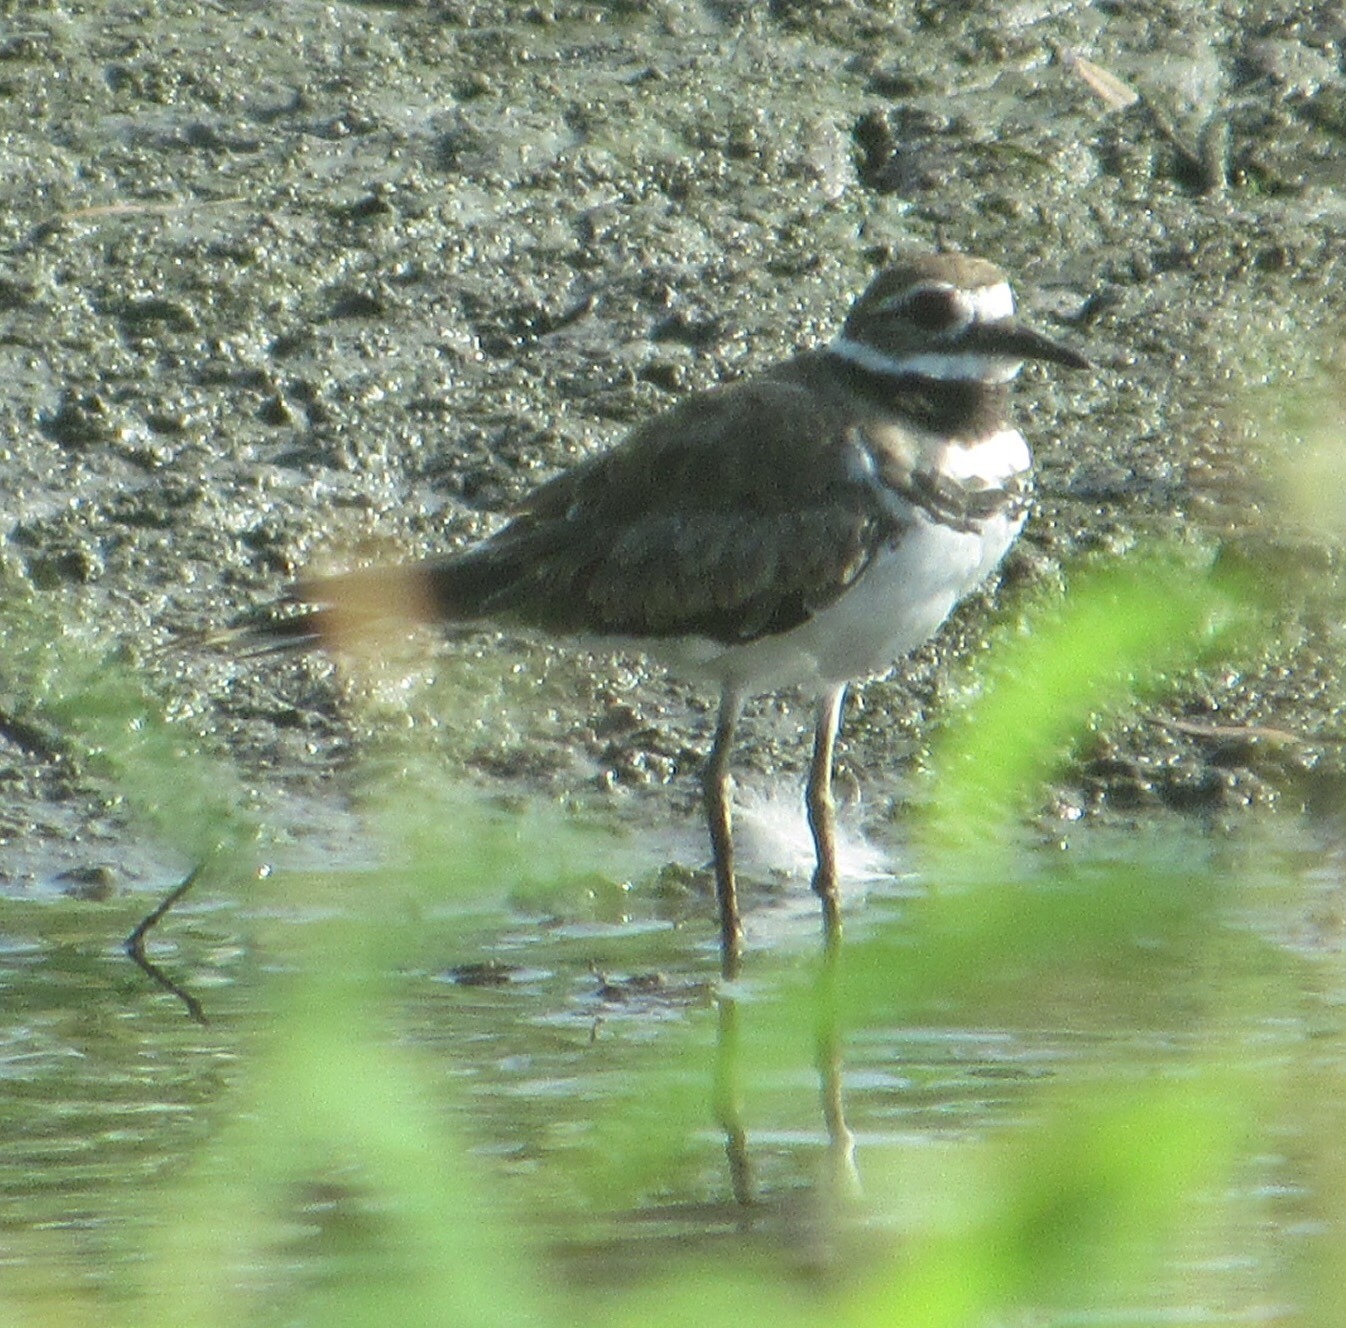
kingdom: Animalia
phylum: Chordata
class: Aves
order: Charadriiformes
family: Charadriidae
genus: Charadrius
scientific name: Charadrius vociferus
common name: Killdeer
